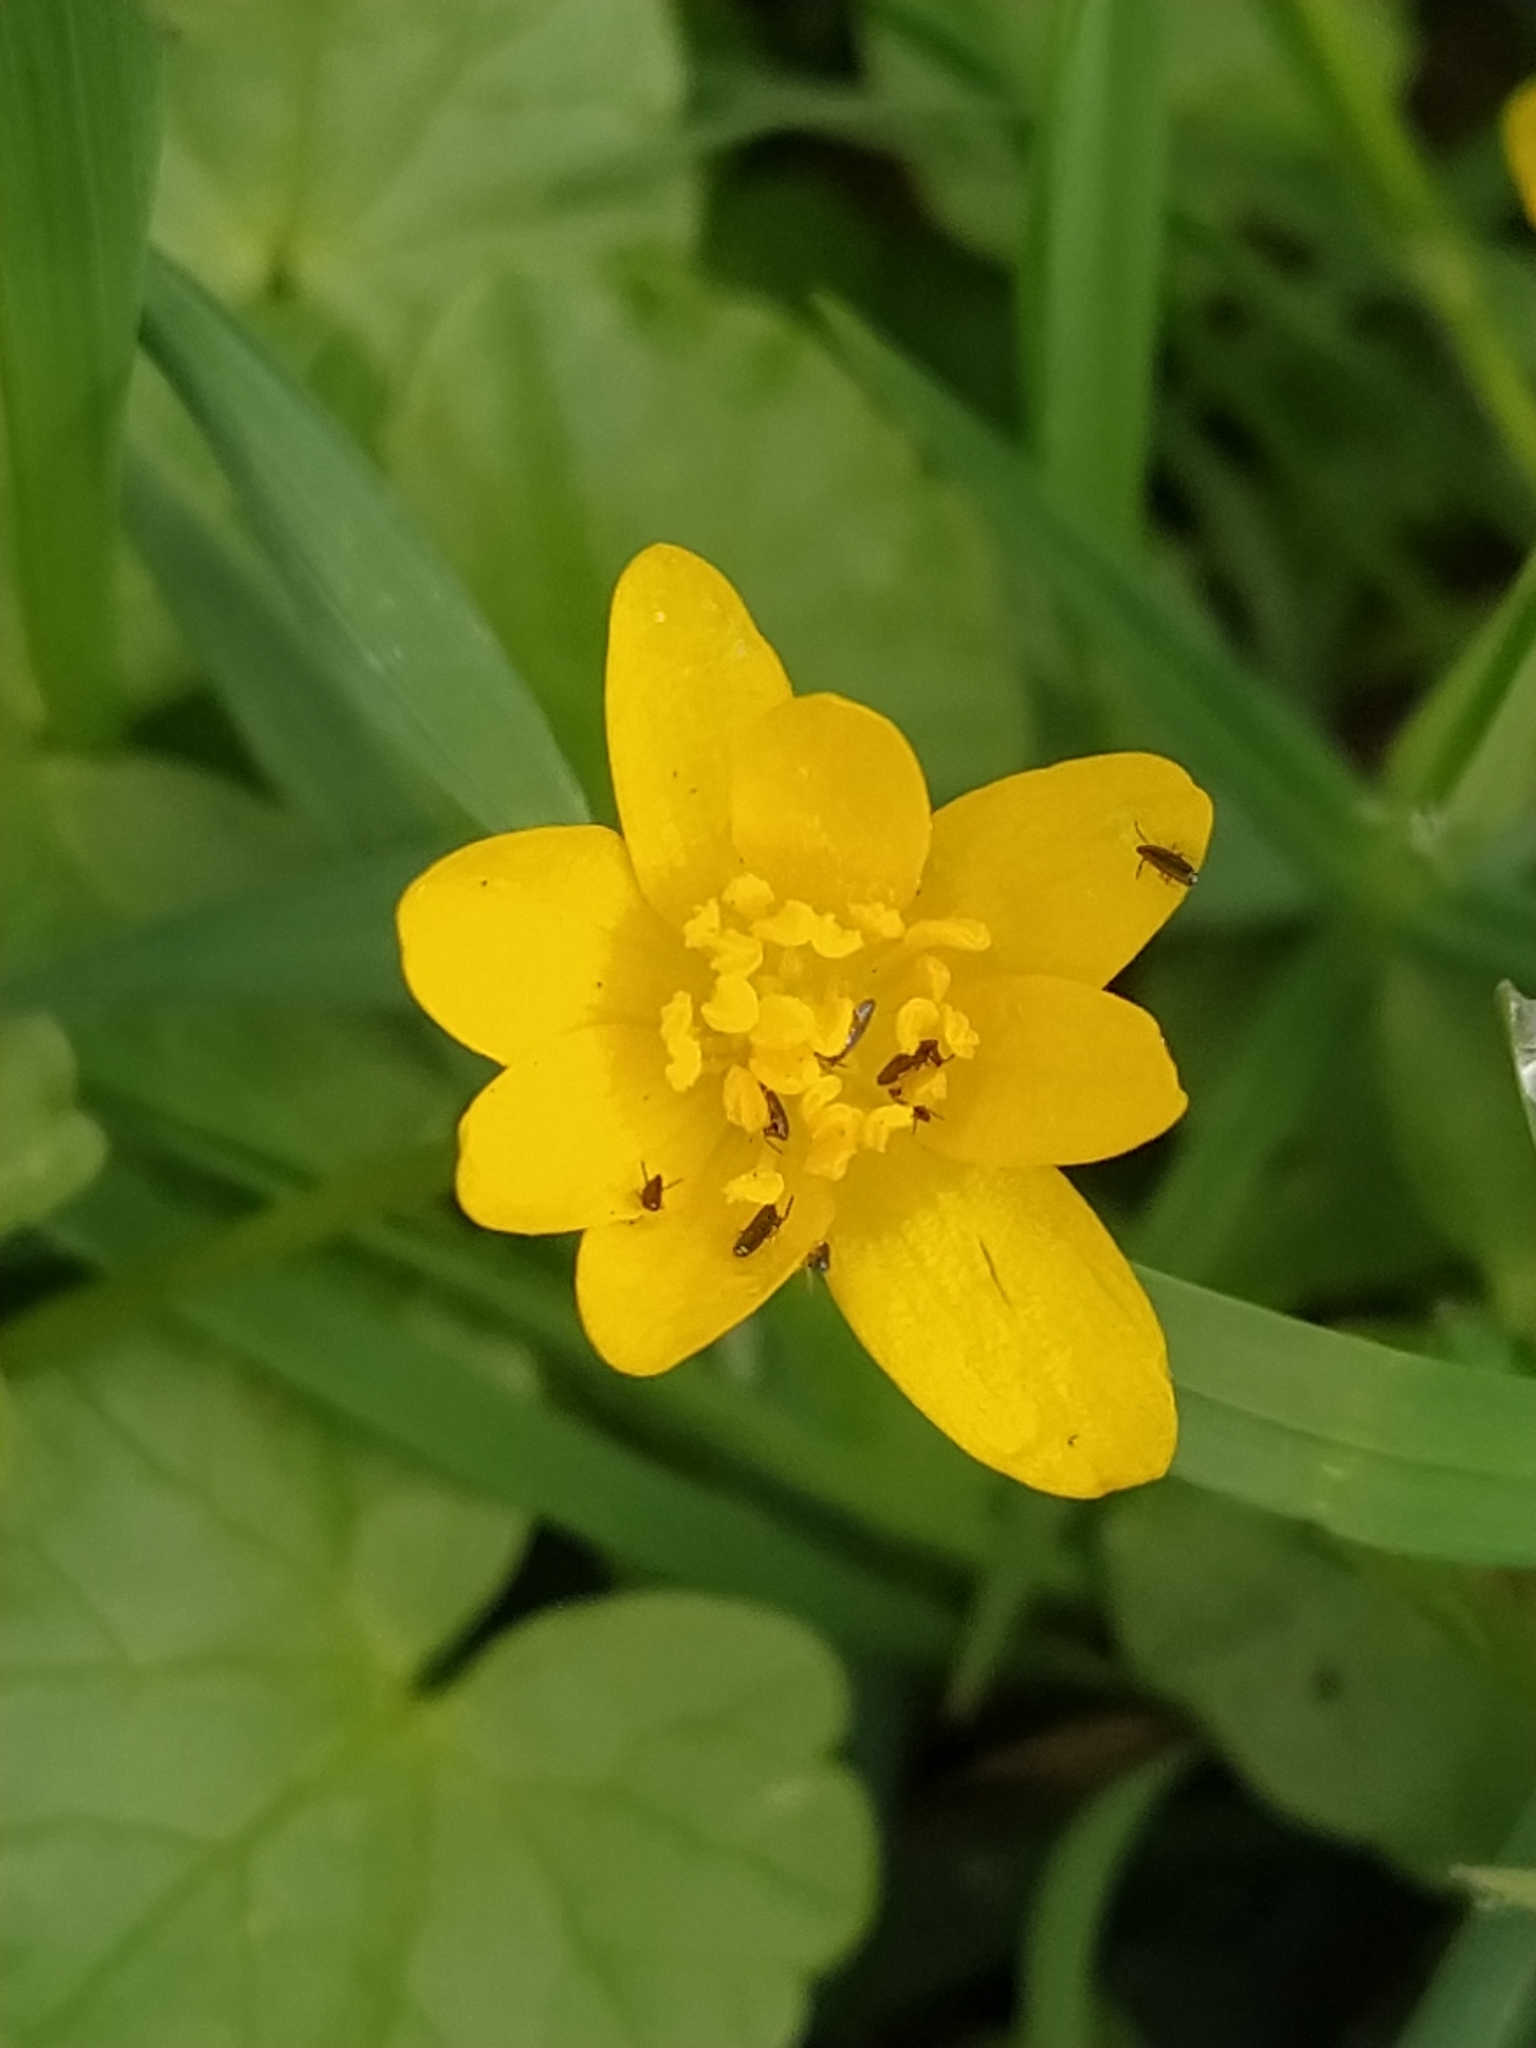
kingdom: Plantae
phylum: Tracheophyta
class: Magnoliopsida
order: Ranunculales
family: Ranunculaceae
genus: Ficaria
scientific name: Ficaria verna
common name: Lesser celandine
